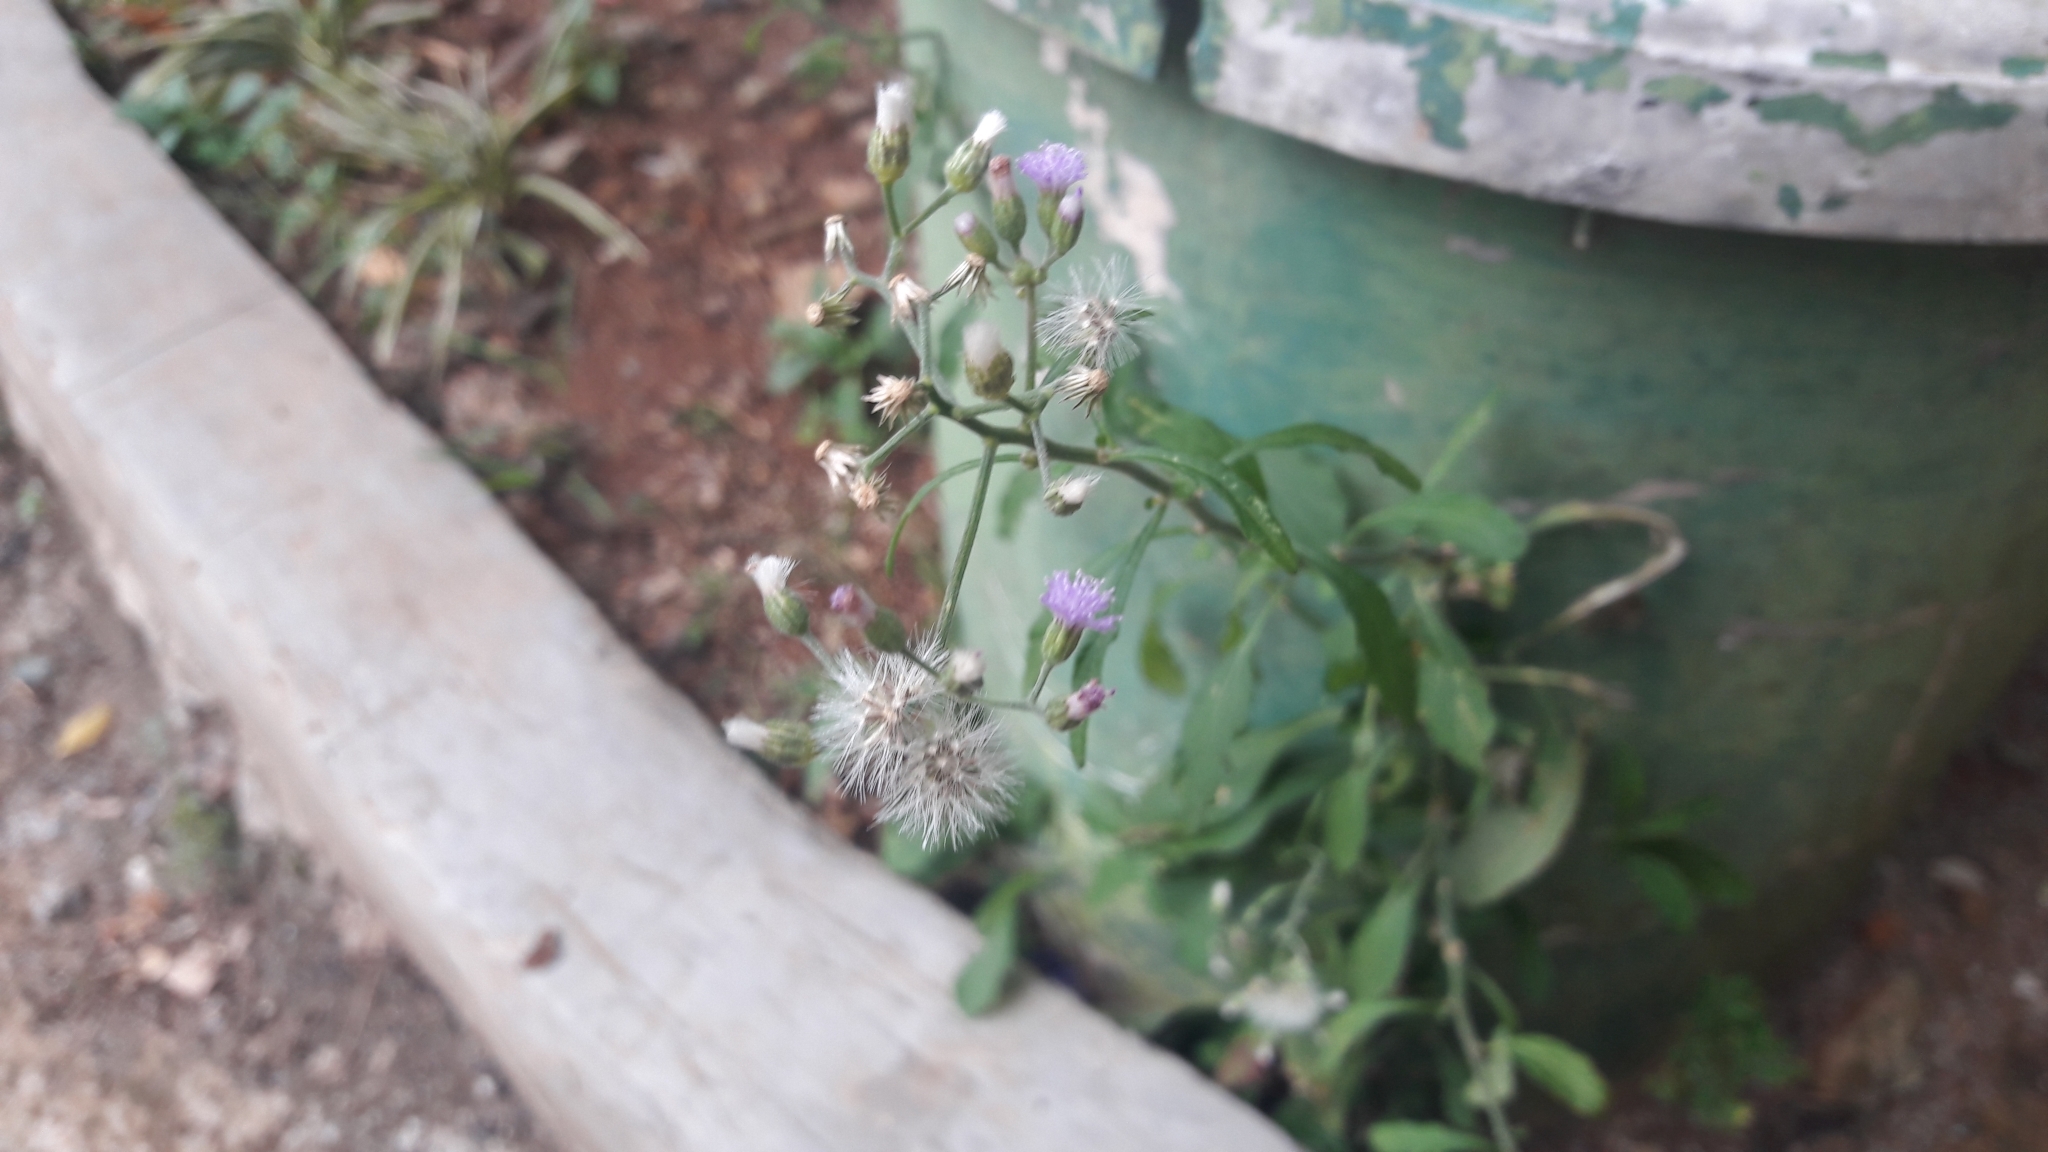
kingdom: Plantae
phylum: Tracheophyta
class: Magnoliopsida
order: Asterales
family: Asteraceae
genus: Cyanthillium
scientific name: Cyanthillium cinereum
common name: Little ironweed
